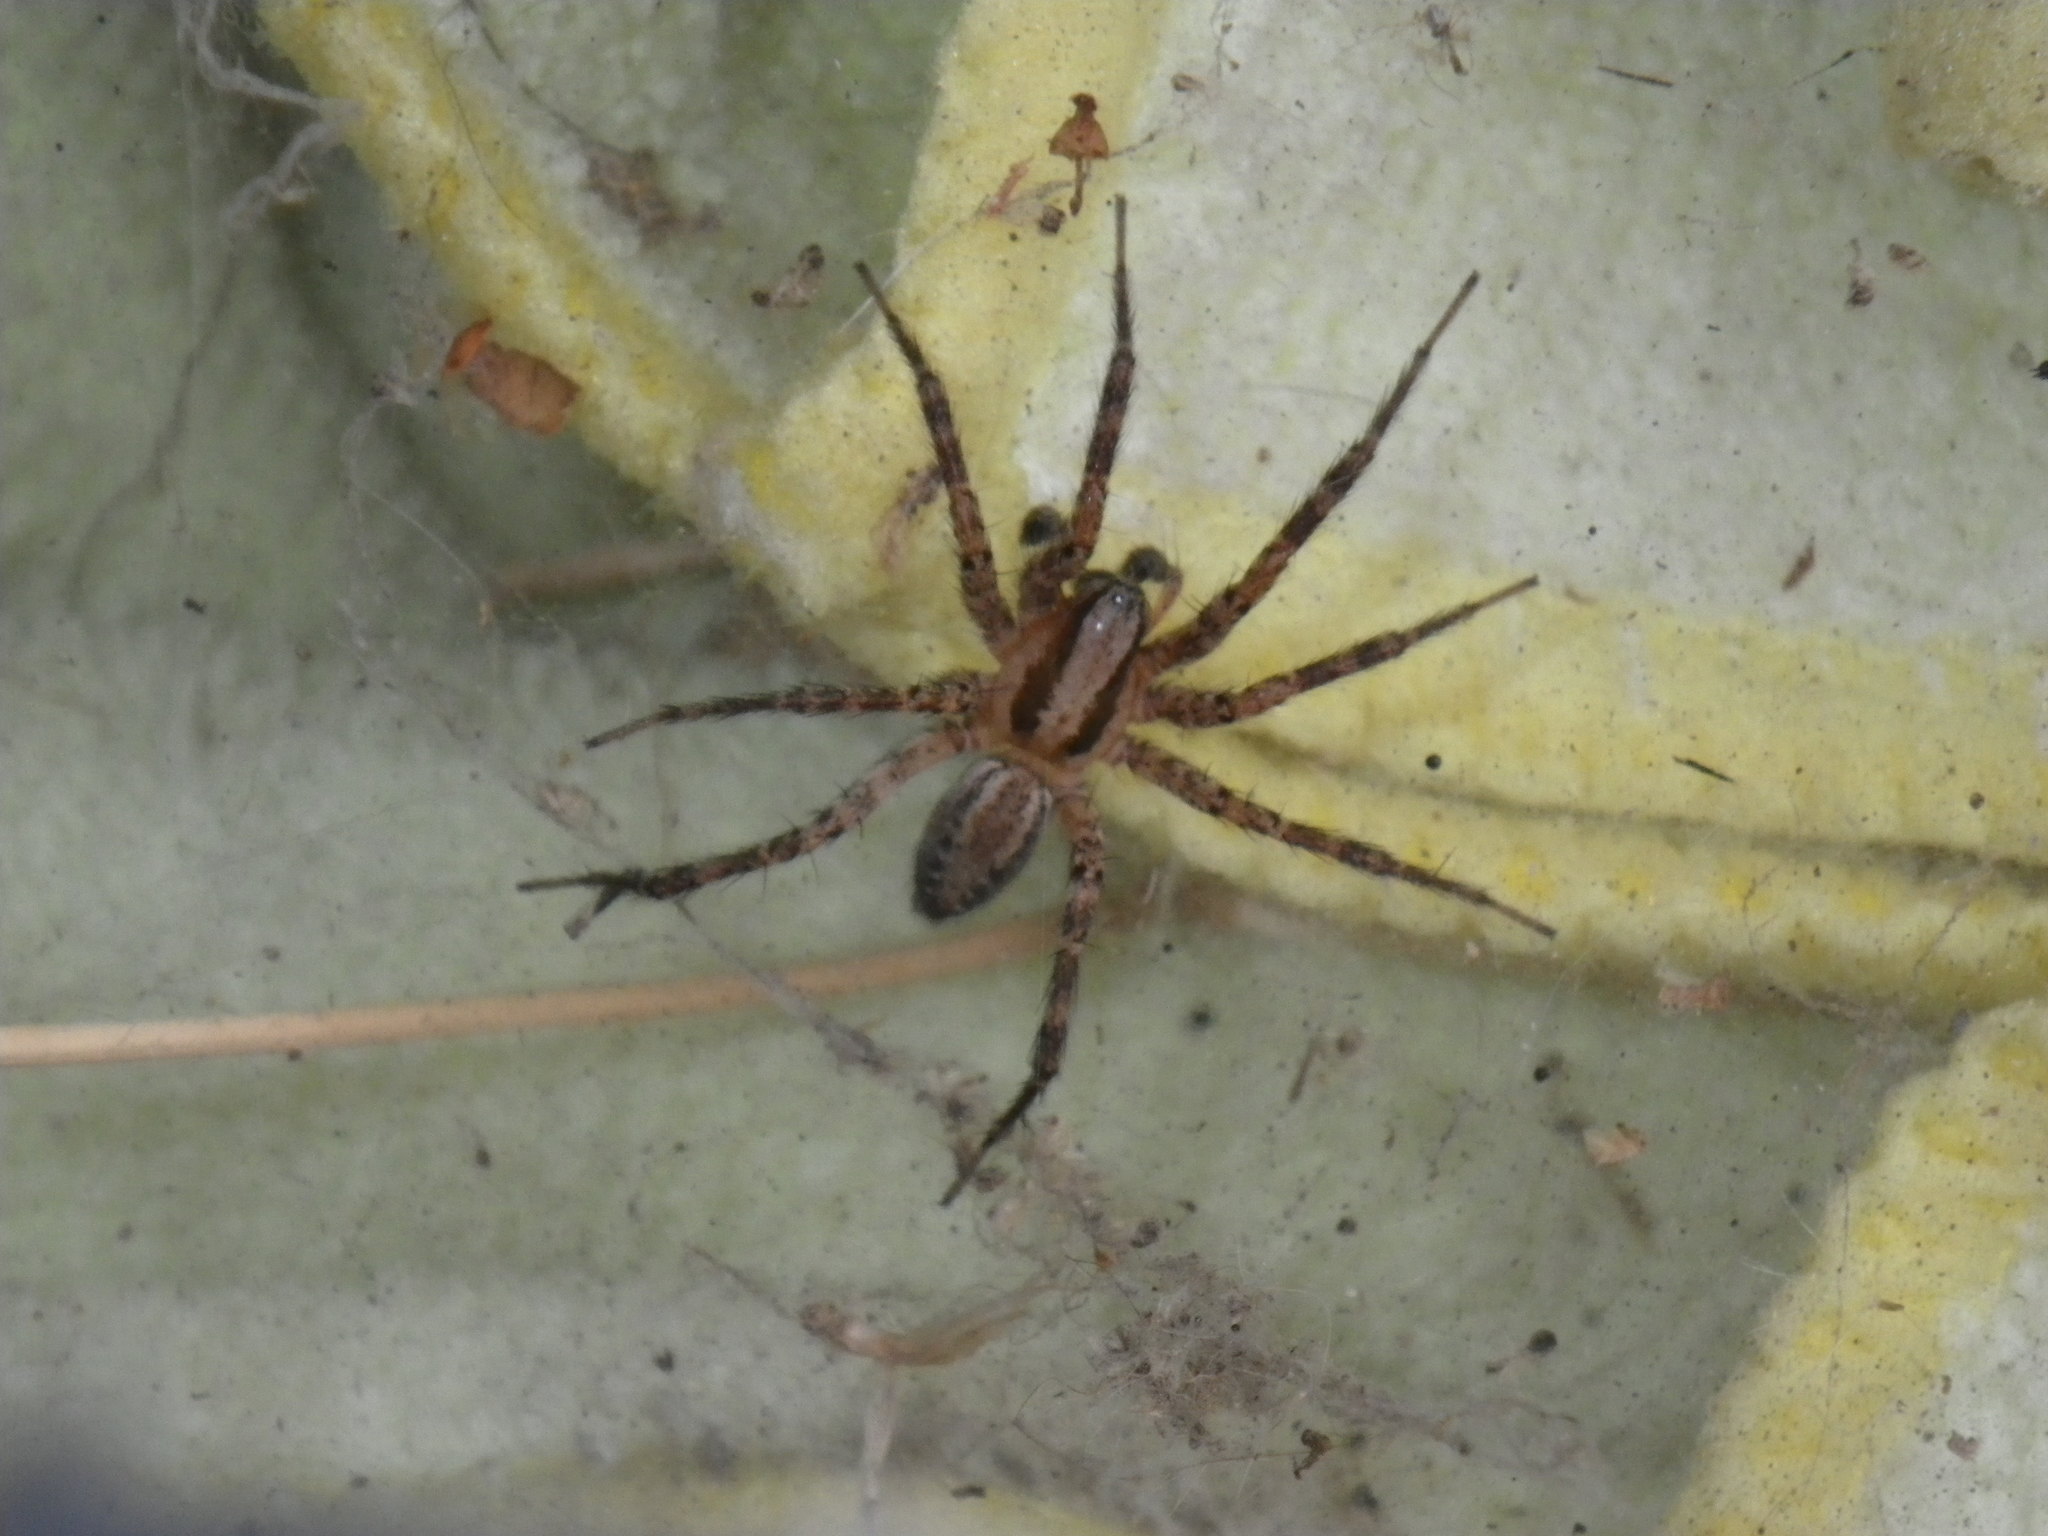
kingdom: Animalia
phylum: Arthropoda
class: Arachnida
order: Araneae
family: Agelenidae
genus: Hololena
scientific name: Hololena
